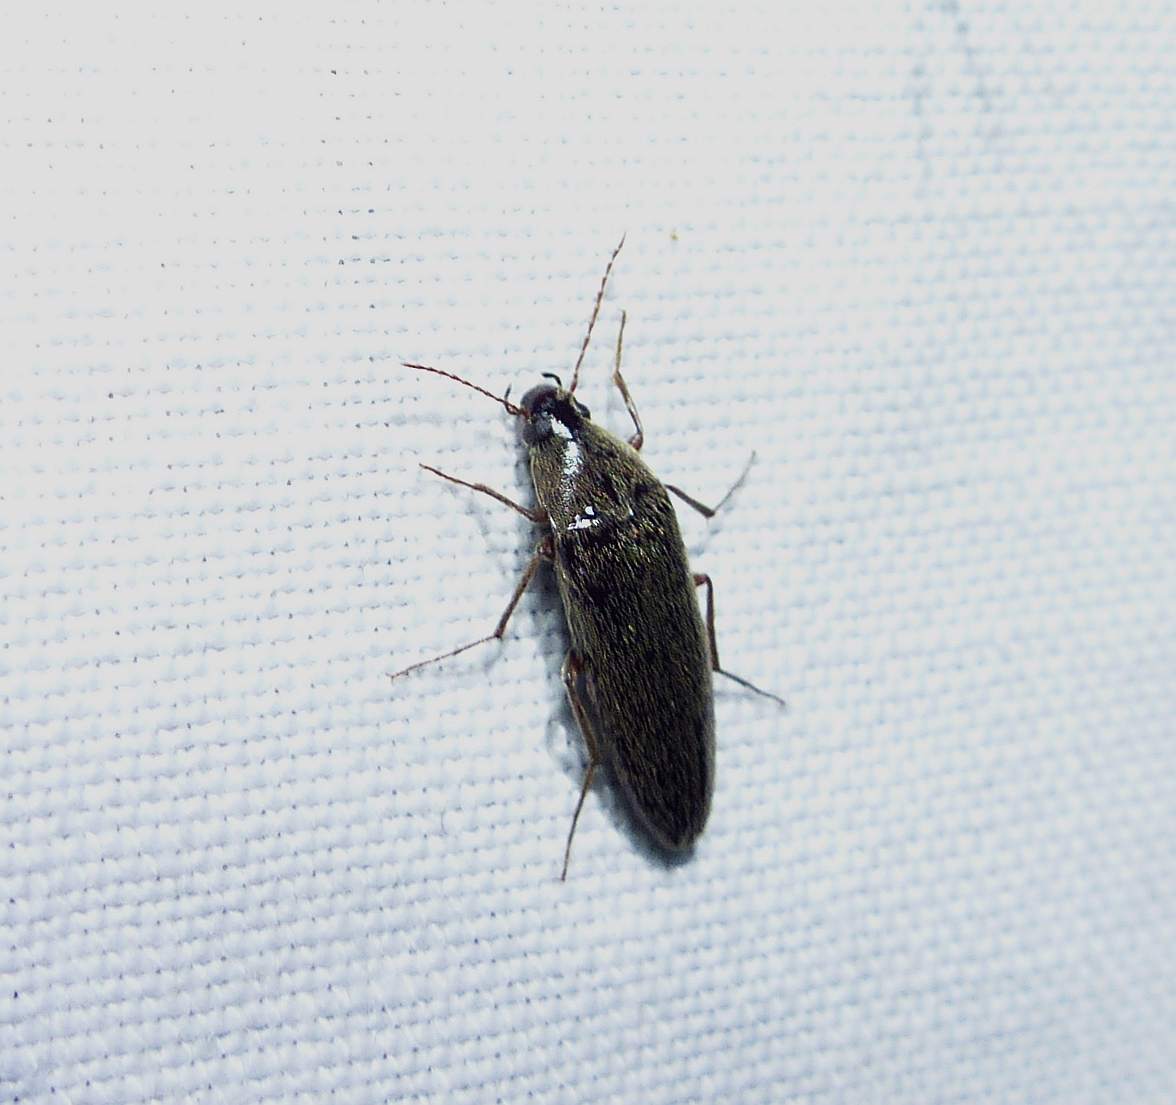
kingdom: Animalia
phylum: Arthropoda
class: Insecta
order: Coleoptera
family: Synchroidae
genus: Synchroa
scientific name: Synchroa punctata
